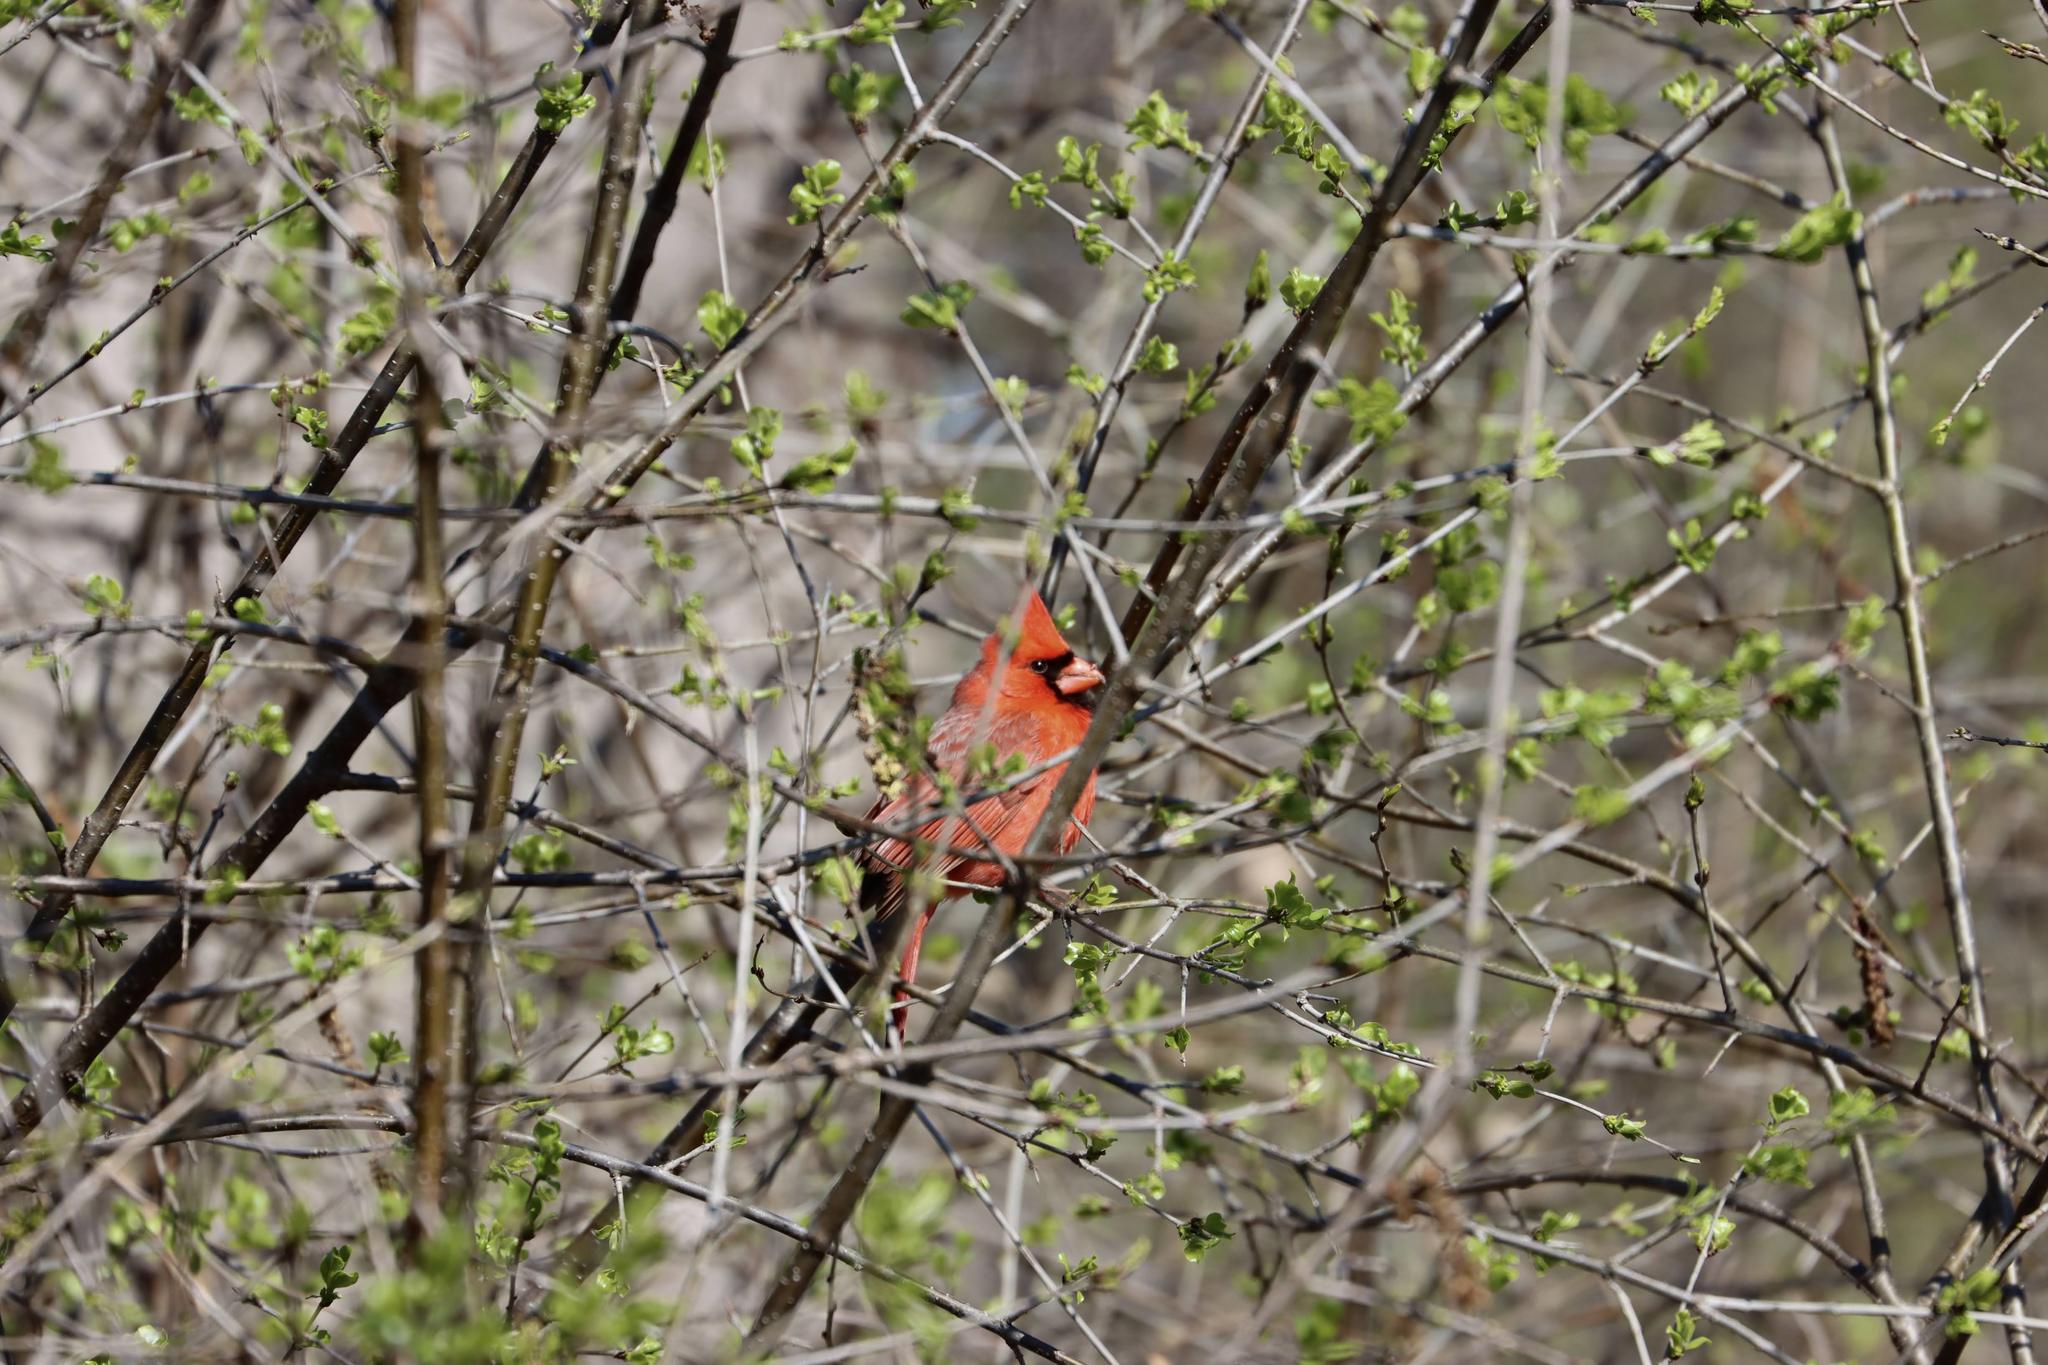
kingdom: Animalia
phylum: Chordata
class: Aves
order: Passeriformes
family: Cardinalidae
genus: Cardinalis
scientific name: Cardinalis cardinalis
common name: Northern cardinal
